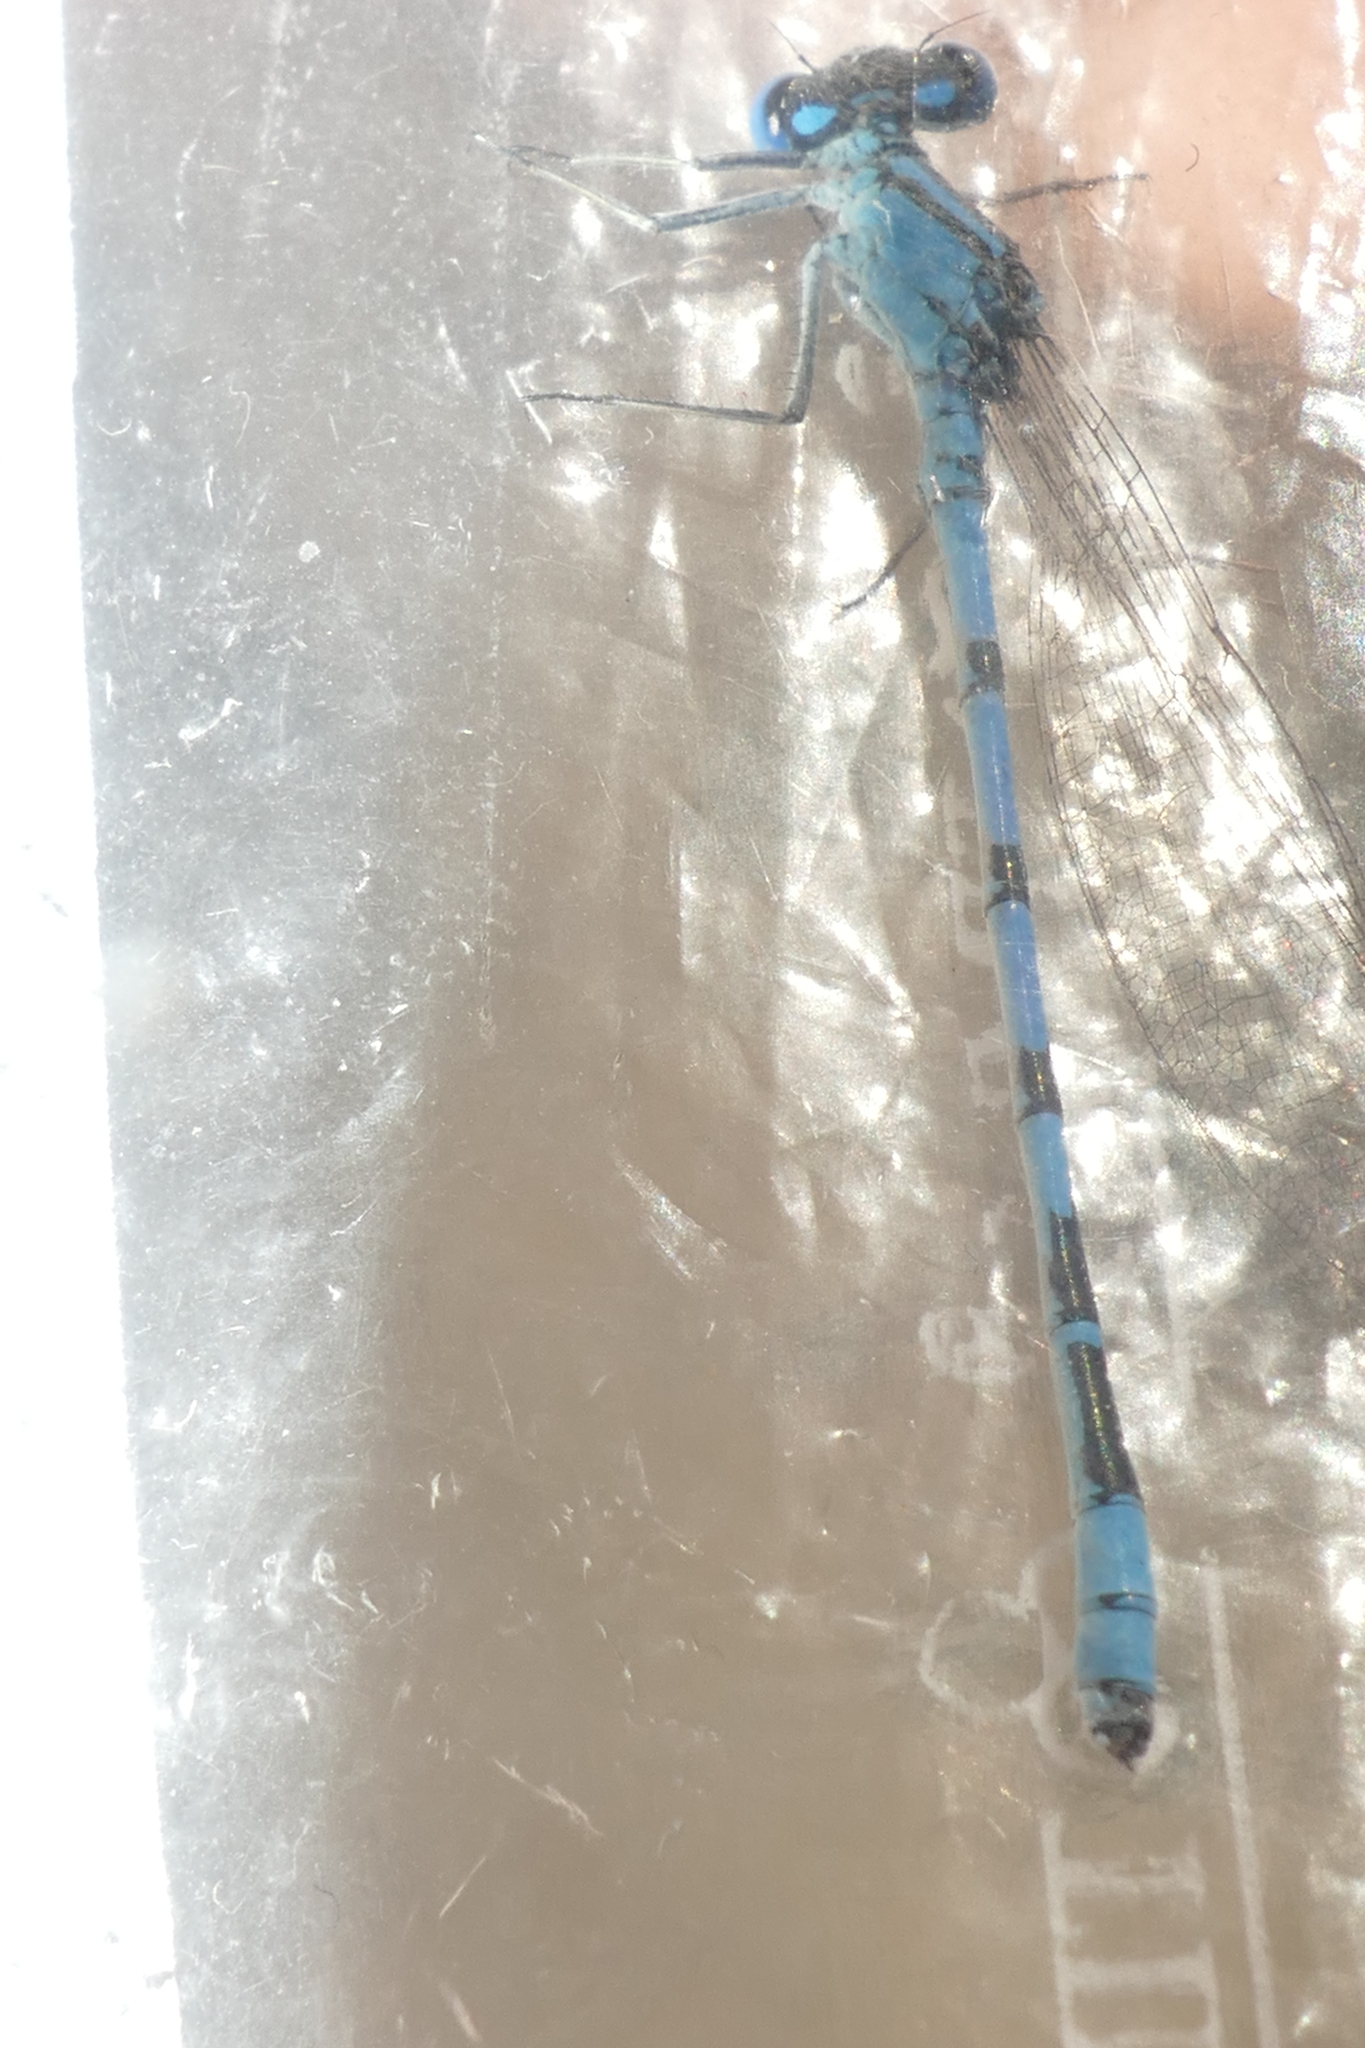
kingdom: Animalia
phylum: Arthropoda
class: Insecta
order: Odonata
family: Coenagrionidae
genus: Enallagma
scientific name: Enallagma cyathigerum
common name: Common blue damselfly
